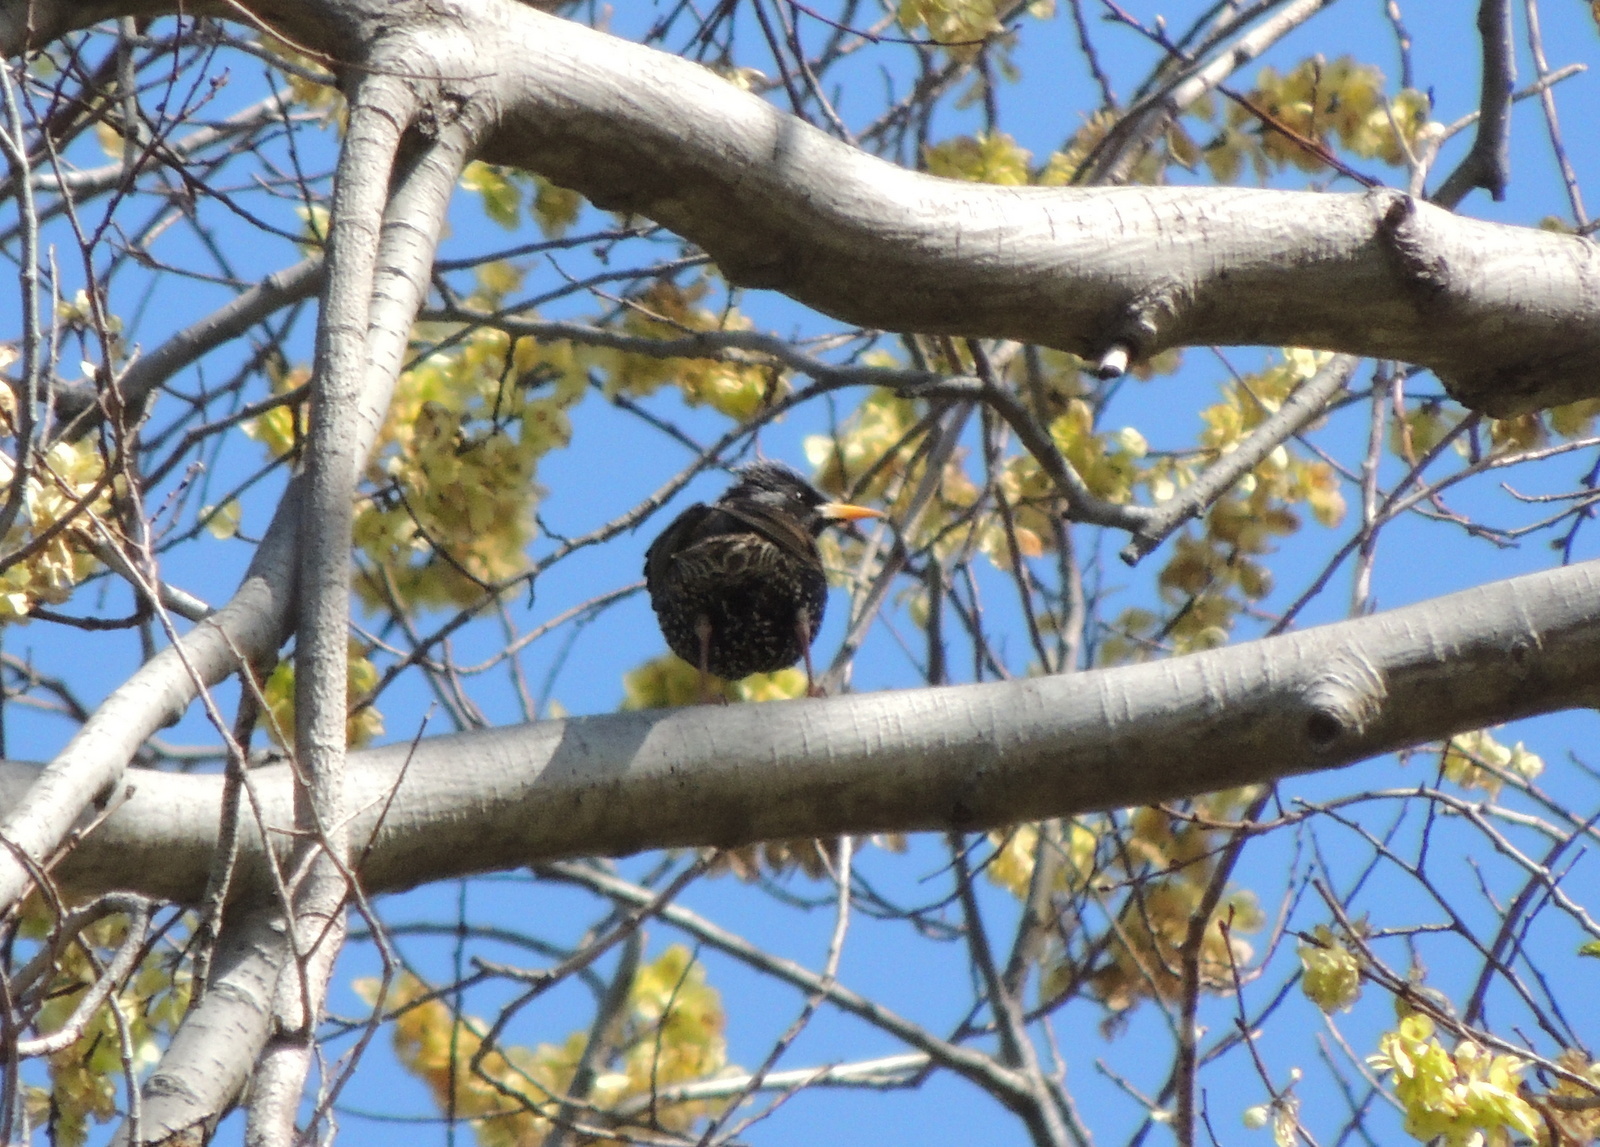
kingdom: Animalia
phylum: Chordata
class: Aves
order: Passeriformes
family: Sturnidae
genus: Sturnus
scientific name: Sturnus vulgaris
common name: Common starling
